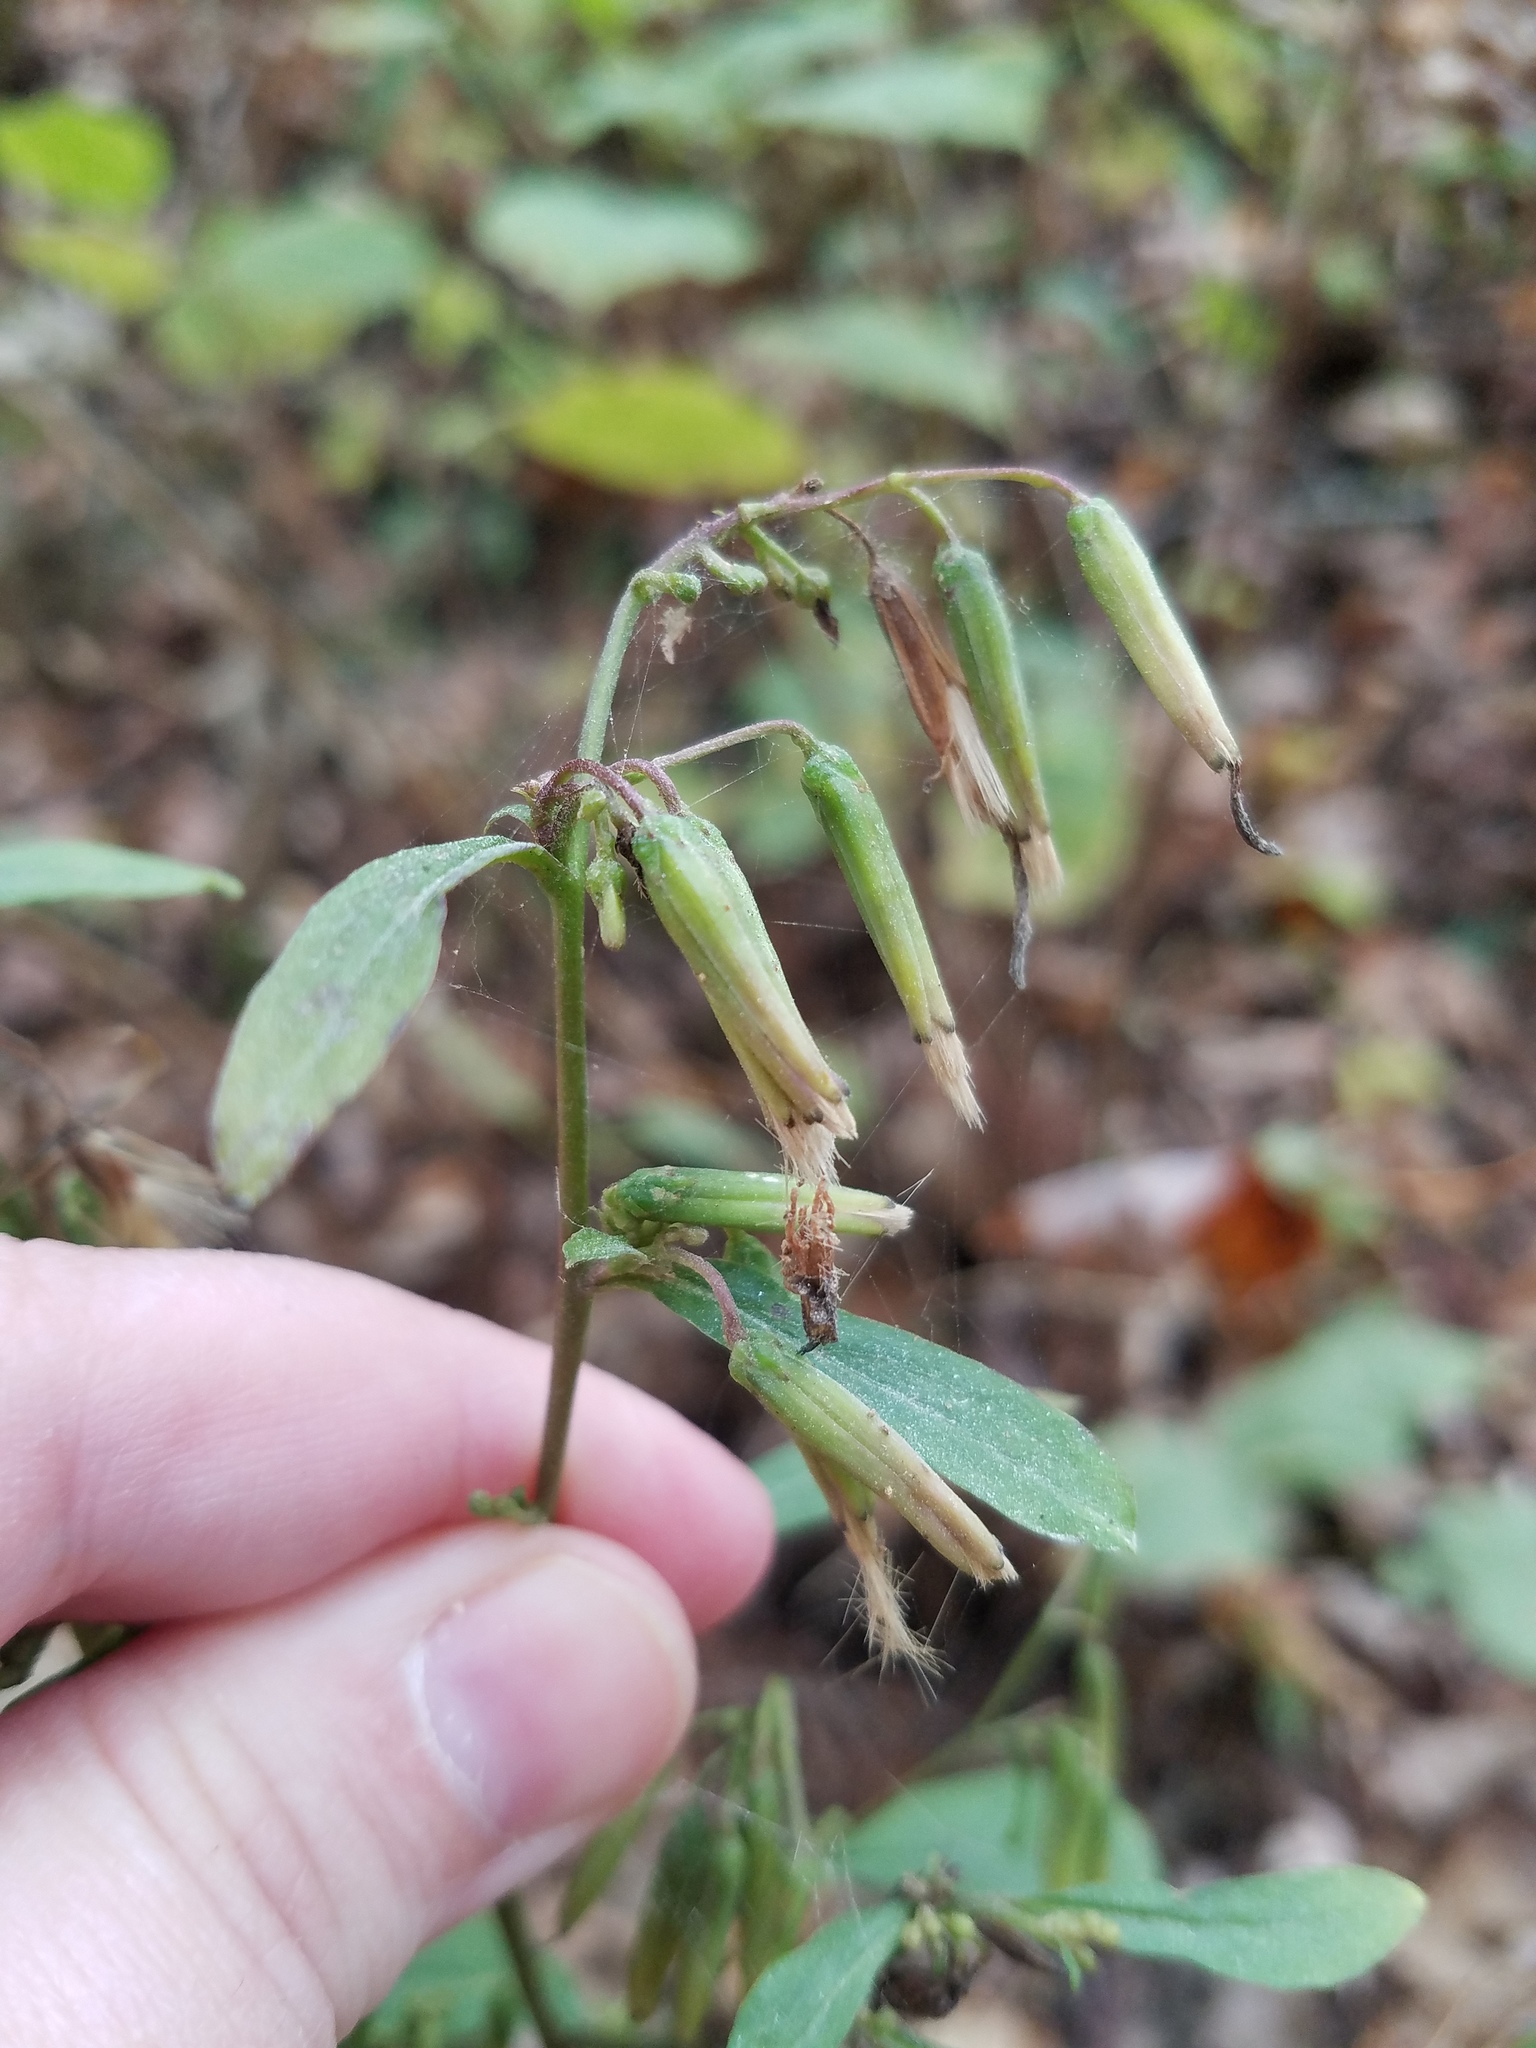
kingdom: Plantae
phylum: Tracheophyta
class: Magnoliopsida
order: Asterales
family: Asteraceae
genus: Nabalus
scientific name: Nabalus altissima
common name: Tall rattlesnakeroot
